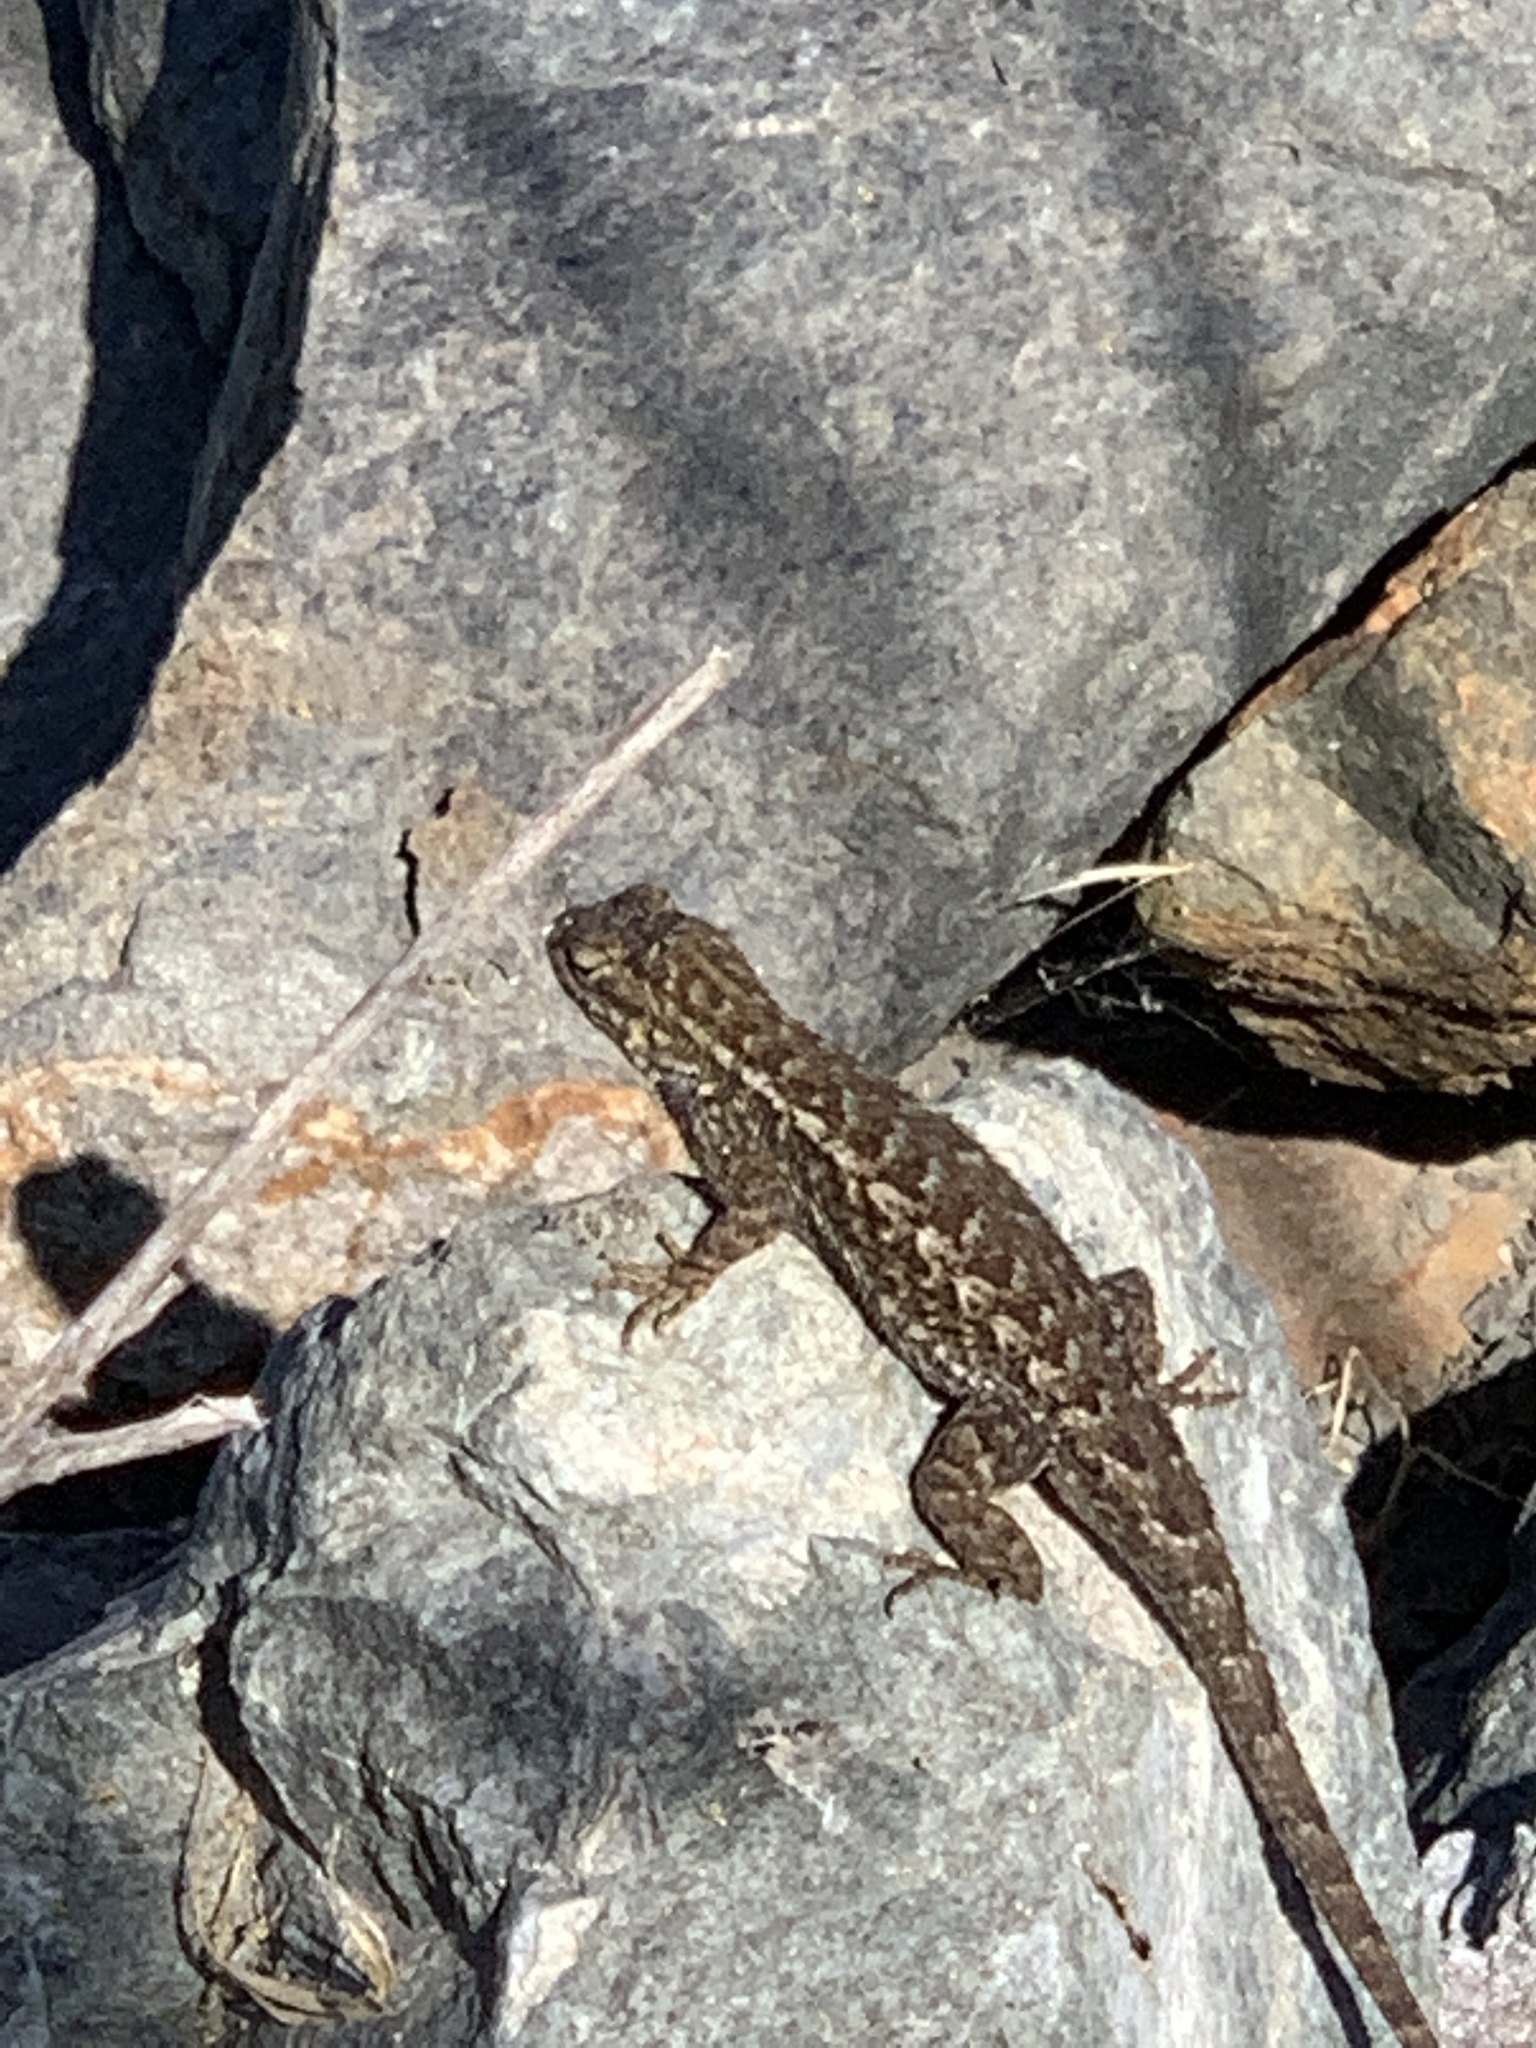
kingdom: Animalia
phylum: Chordata
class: Squamata
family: Phrynosomatidae
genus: Sceloporus
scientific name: Sceloporus occidentalis
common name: Western fence lizard
